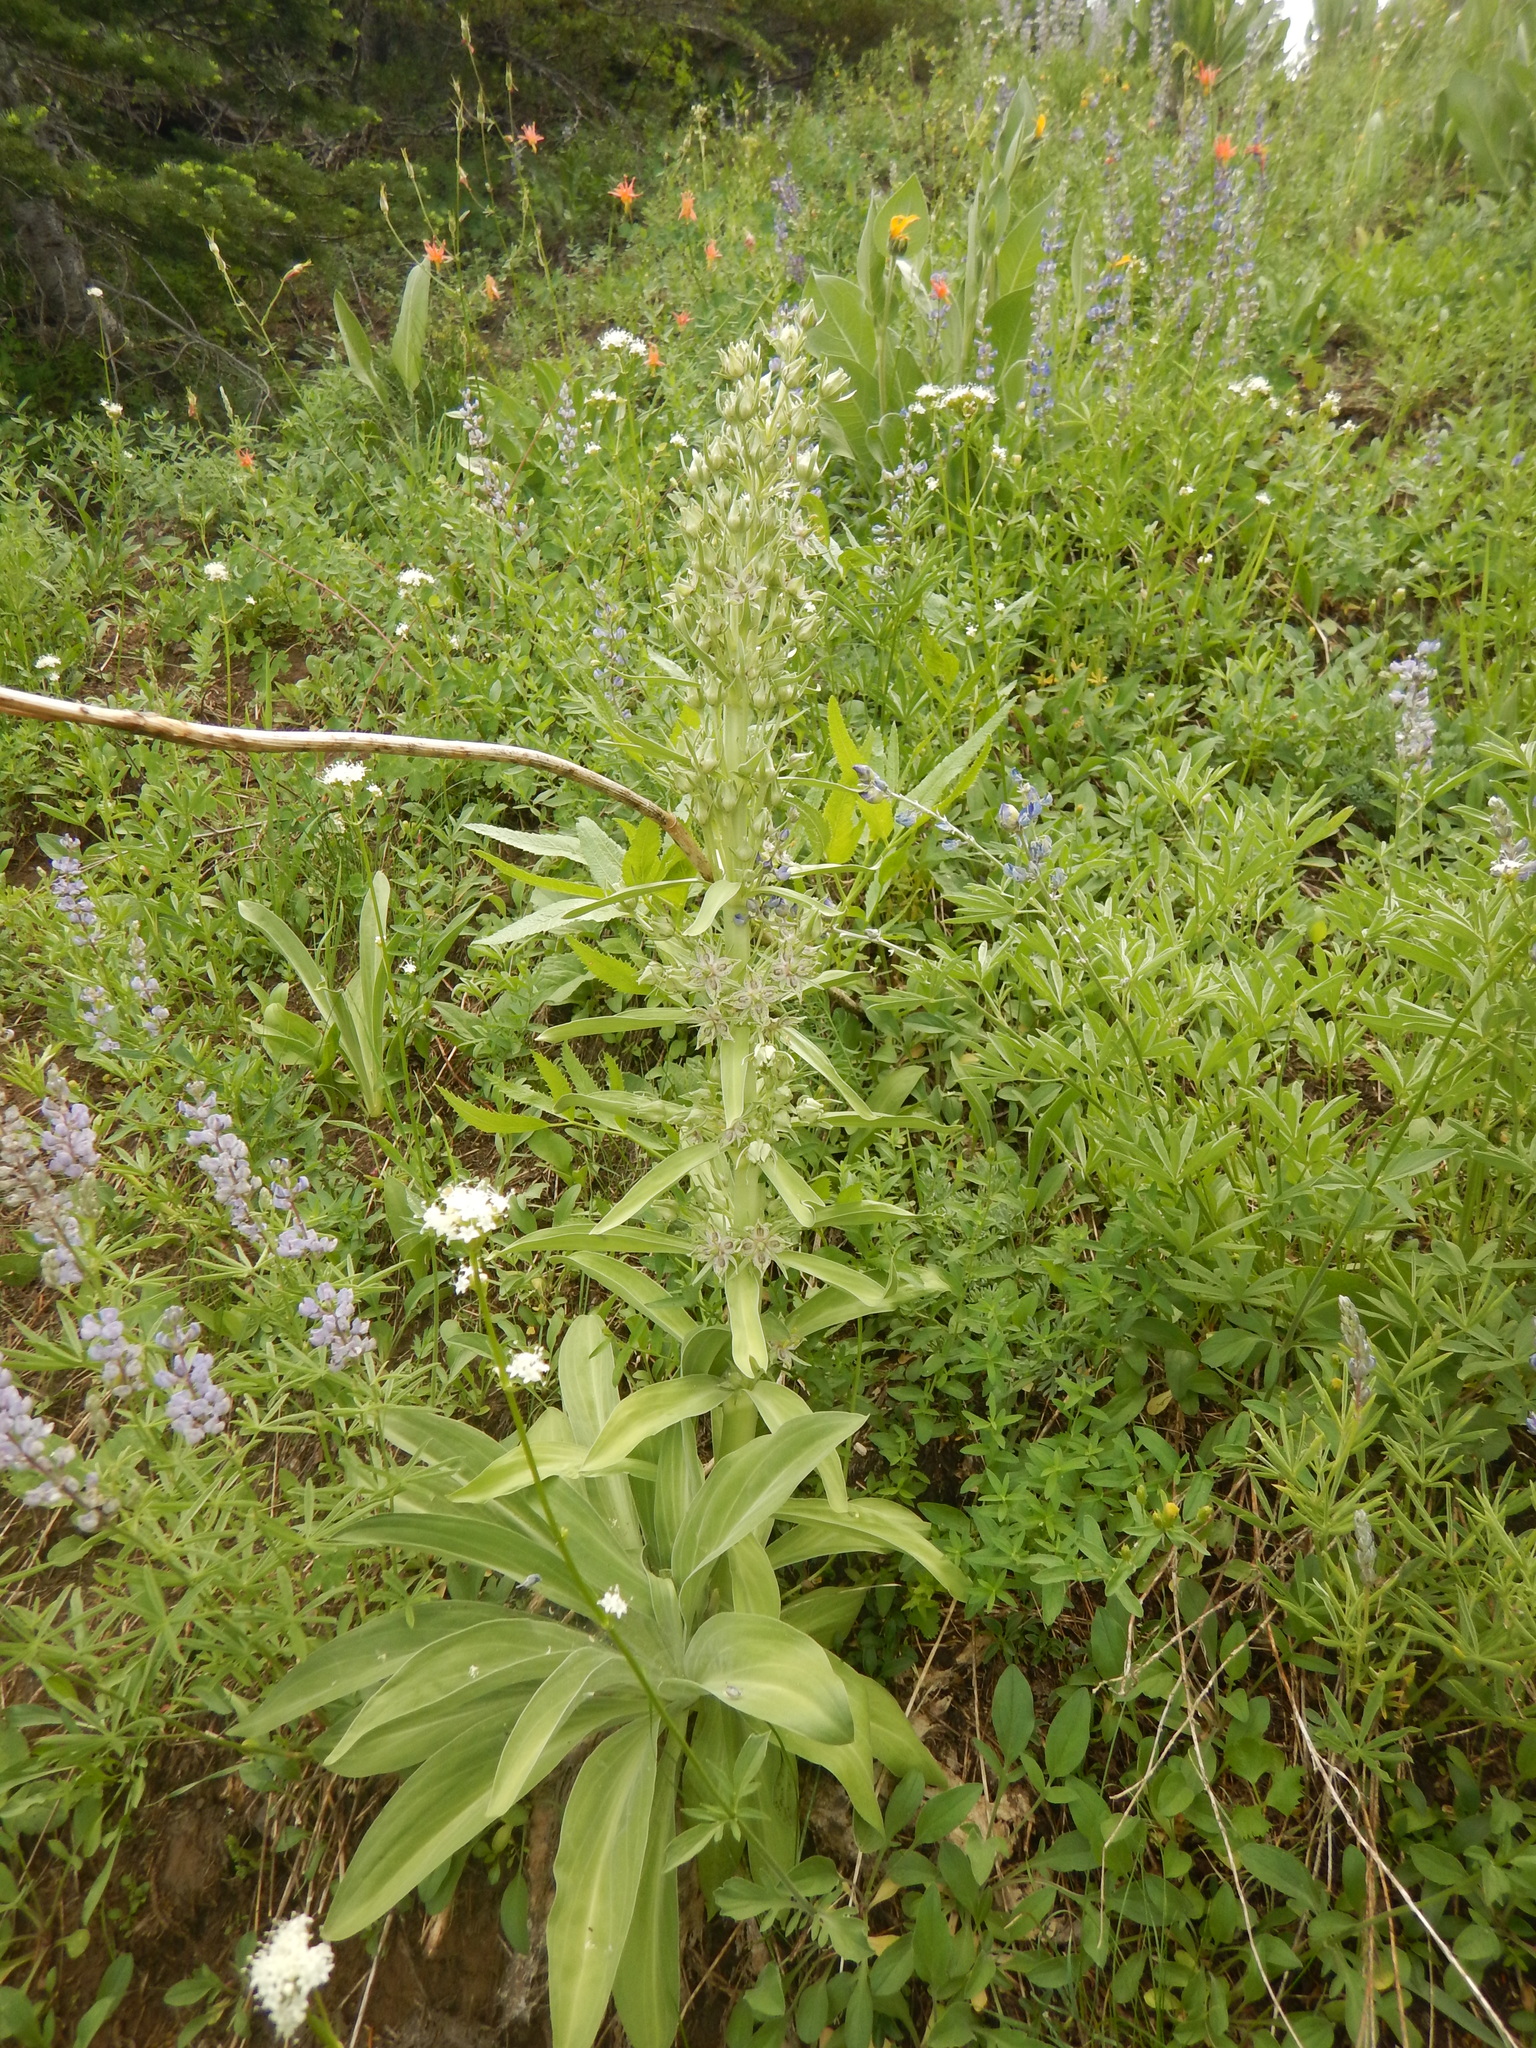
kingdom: Plantae
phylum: Tracheophyta
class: Magnoliopsida
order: Gentianales
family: Gentianaceae
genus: Frasera
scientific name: Frasera speciosa
